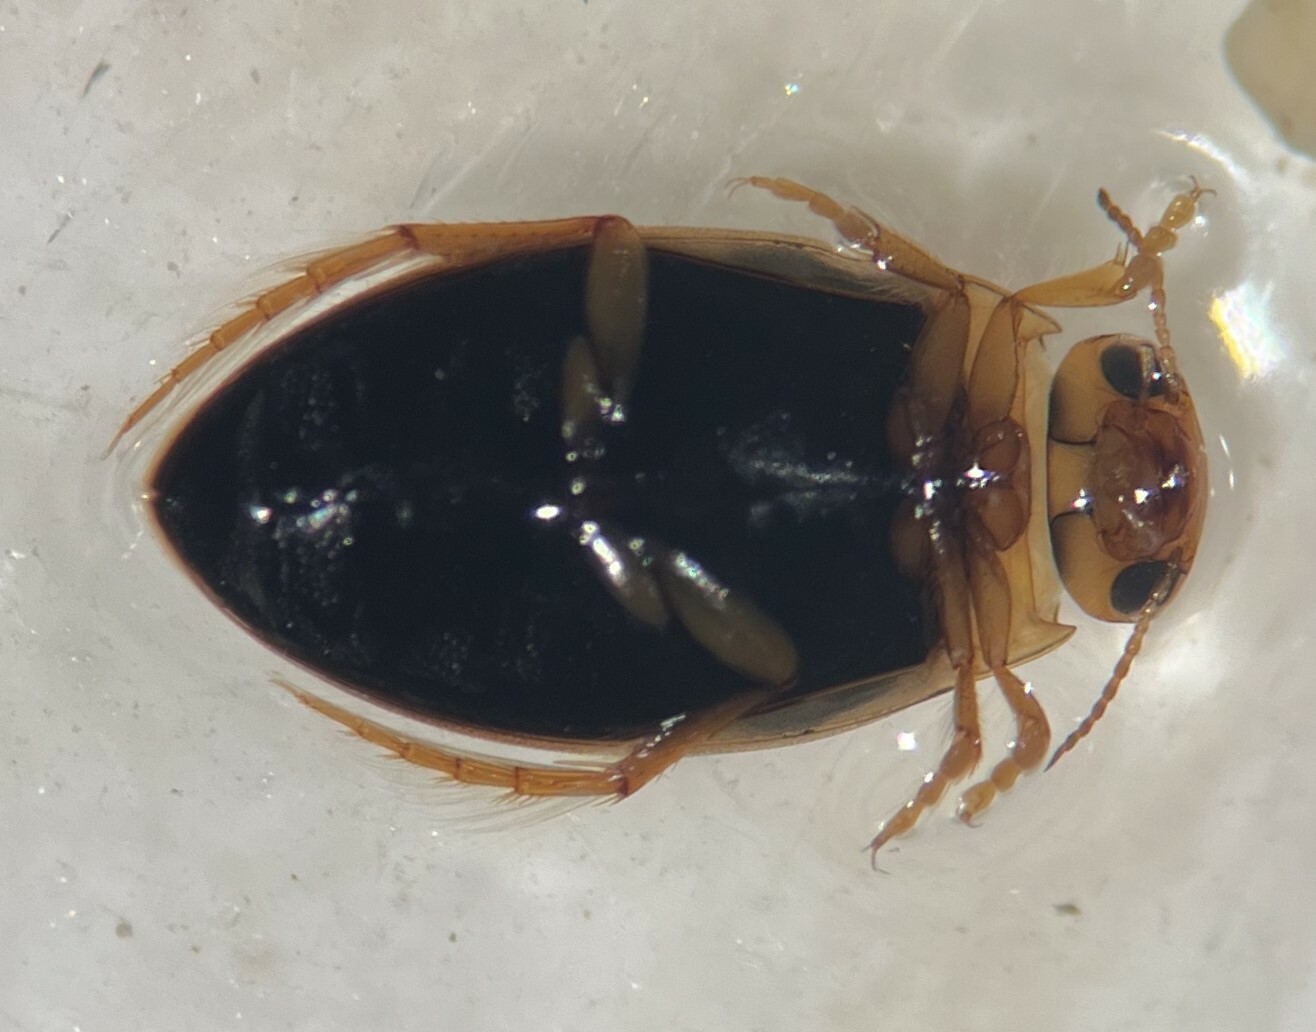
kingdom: Animalia
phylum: Arthropoda
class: Insecta
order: Coleoptera
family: Dytiscidae
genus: Hygrotus
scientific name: Hygrotus nubilus
